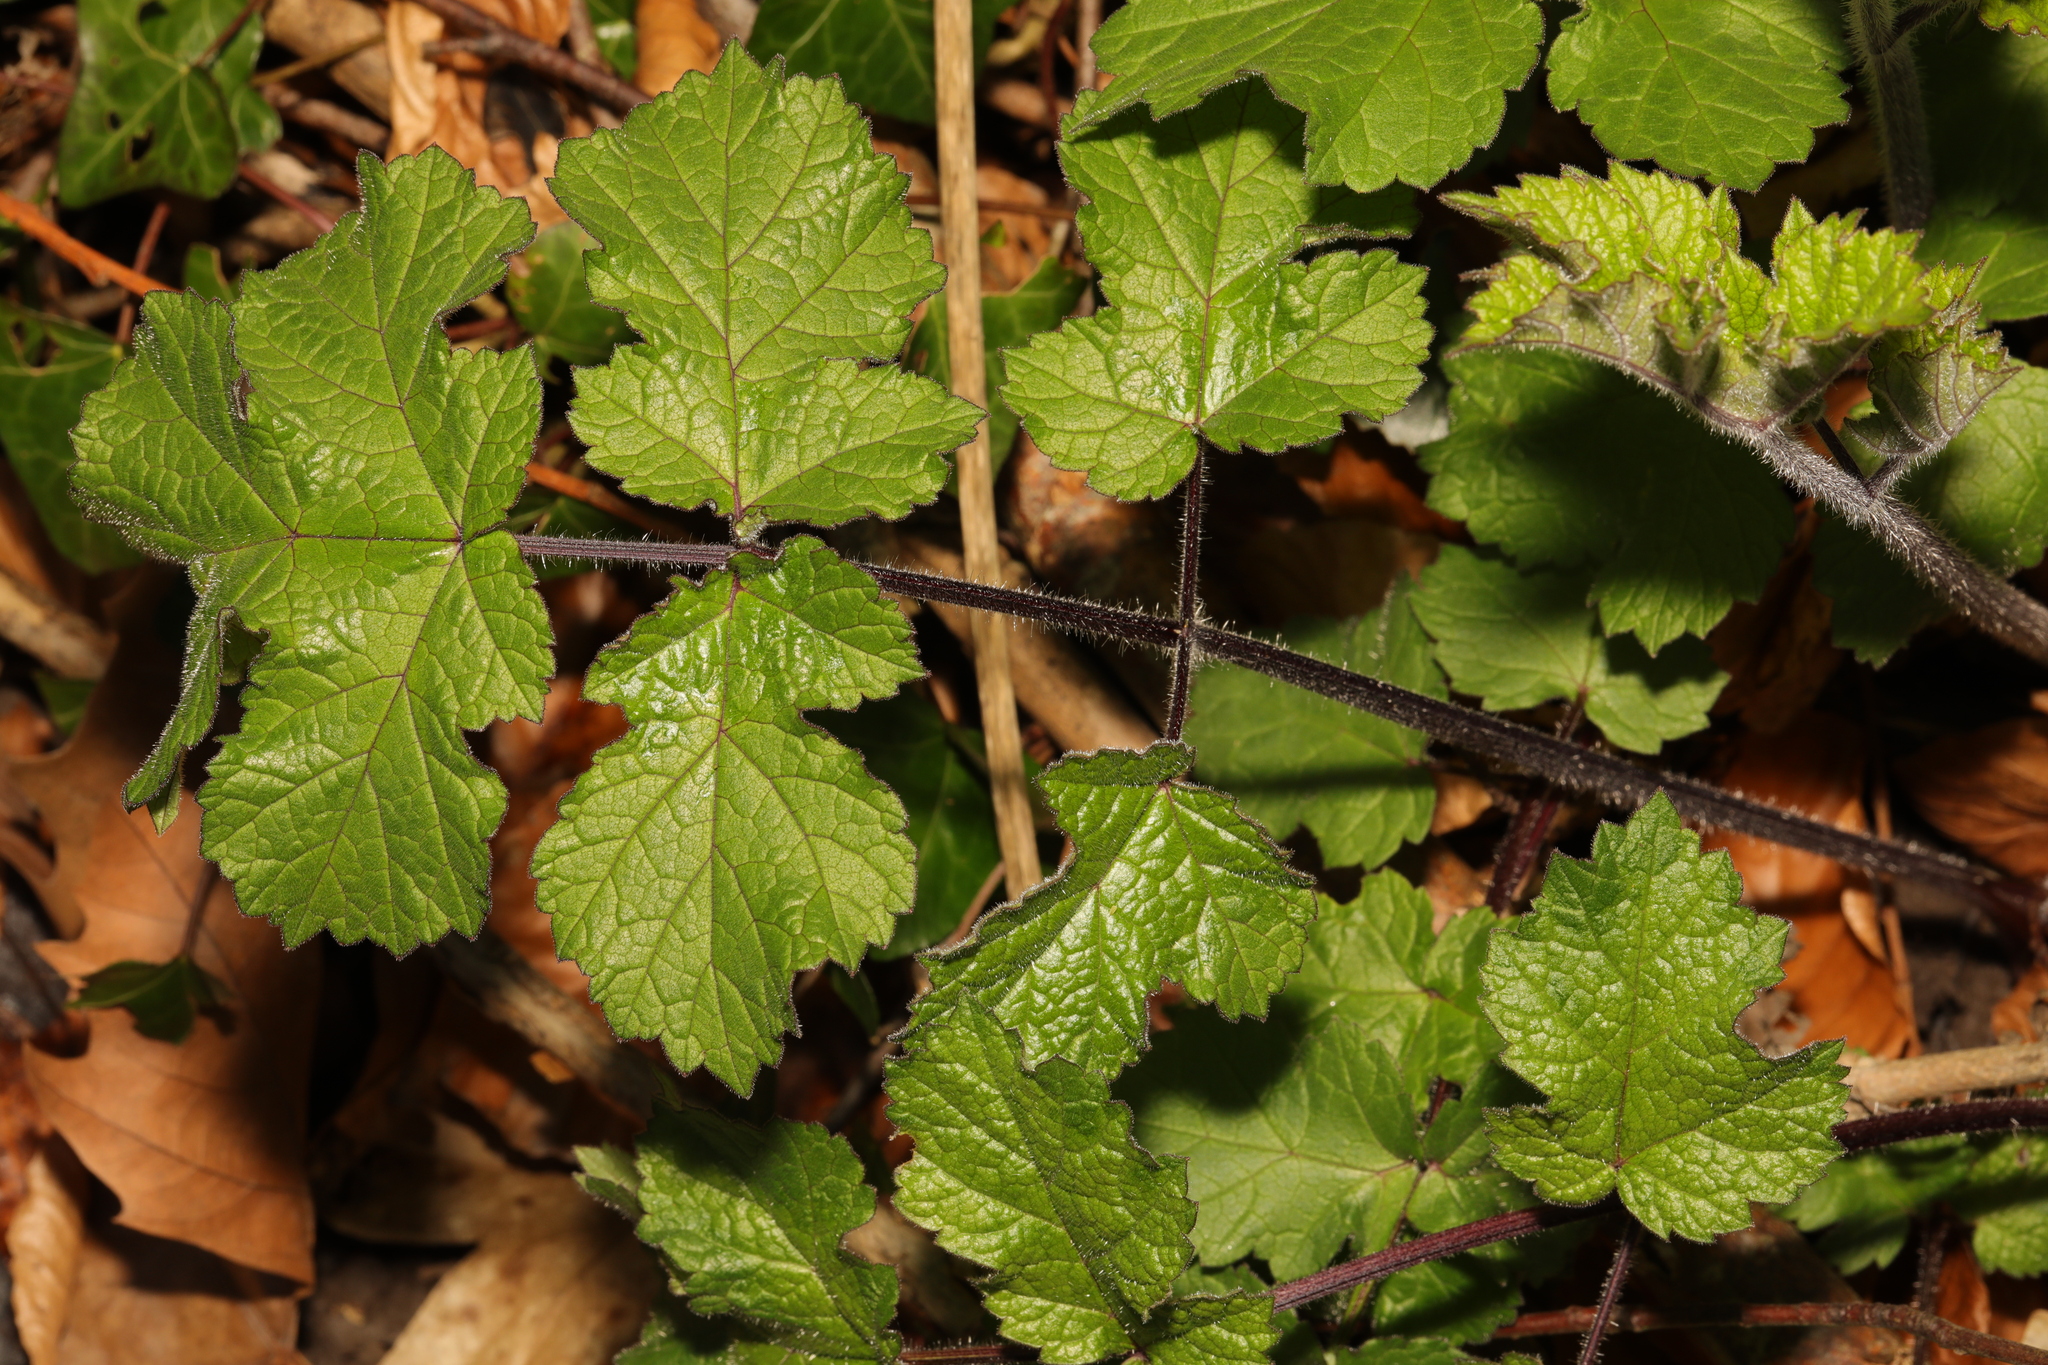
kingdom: Plantae
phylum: Tracheophyta
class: Magnoliopsida
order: Apiales
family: Apiaceae
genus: Heracleum
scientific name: Heracleum sphondylium
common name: Hogweed
